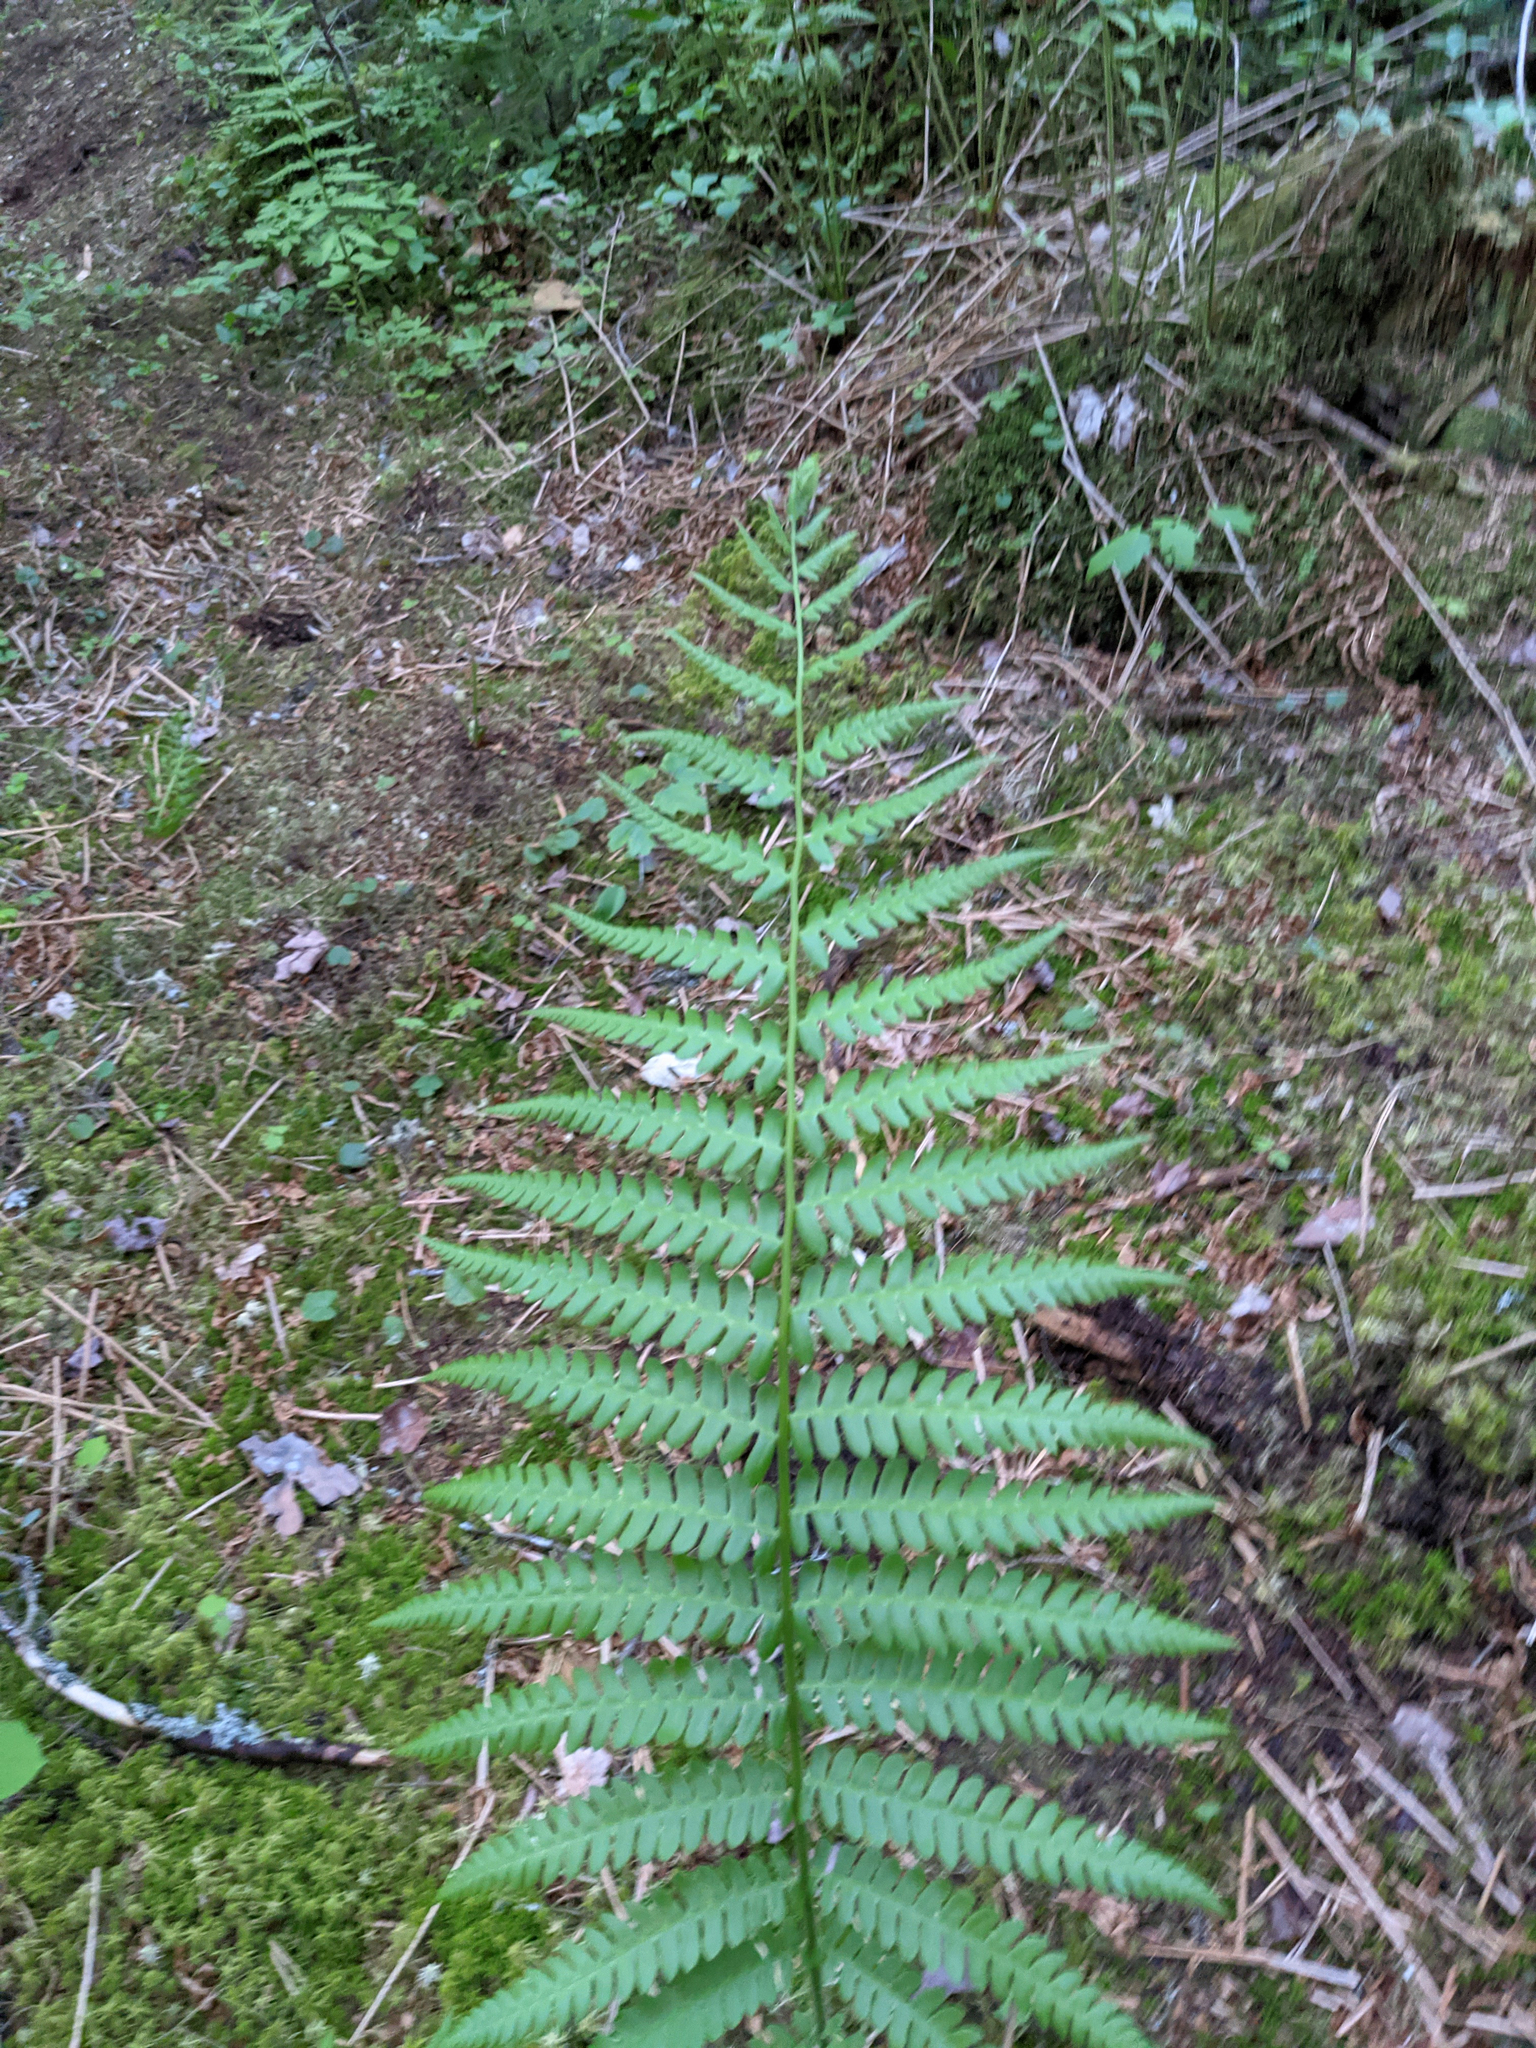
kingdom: Plantae
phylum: Tracheophyta
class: Polypodiopsida
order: Osmundales
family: Osmundaceae
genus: Osmundastrum
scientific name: Osmundastrum cinnamomeum
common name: Cinnamon fern
